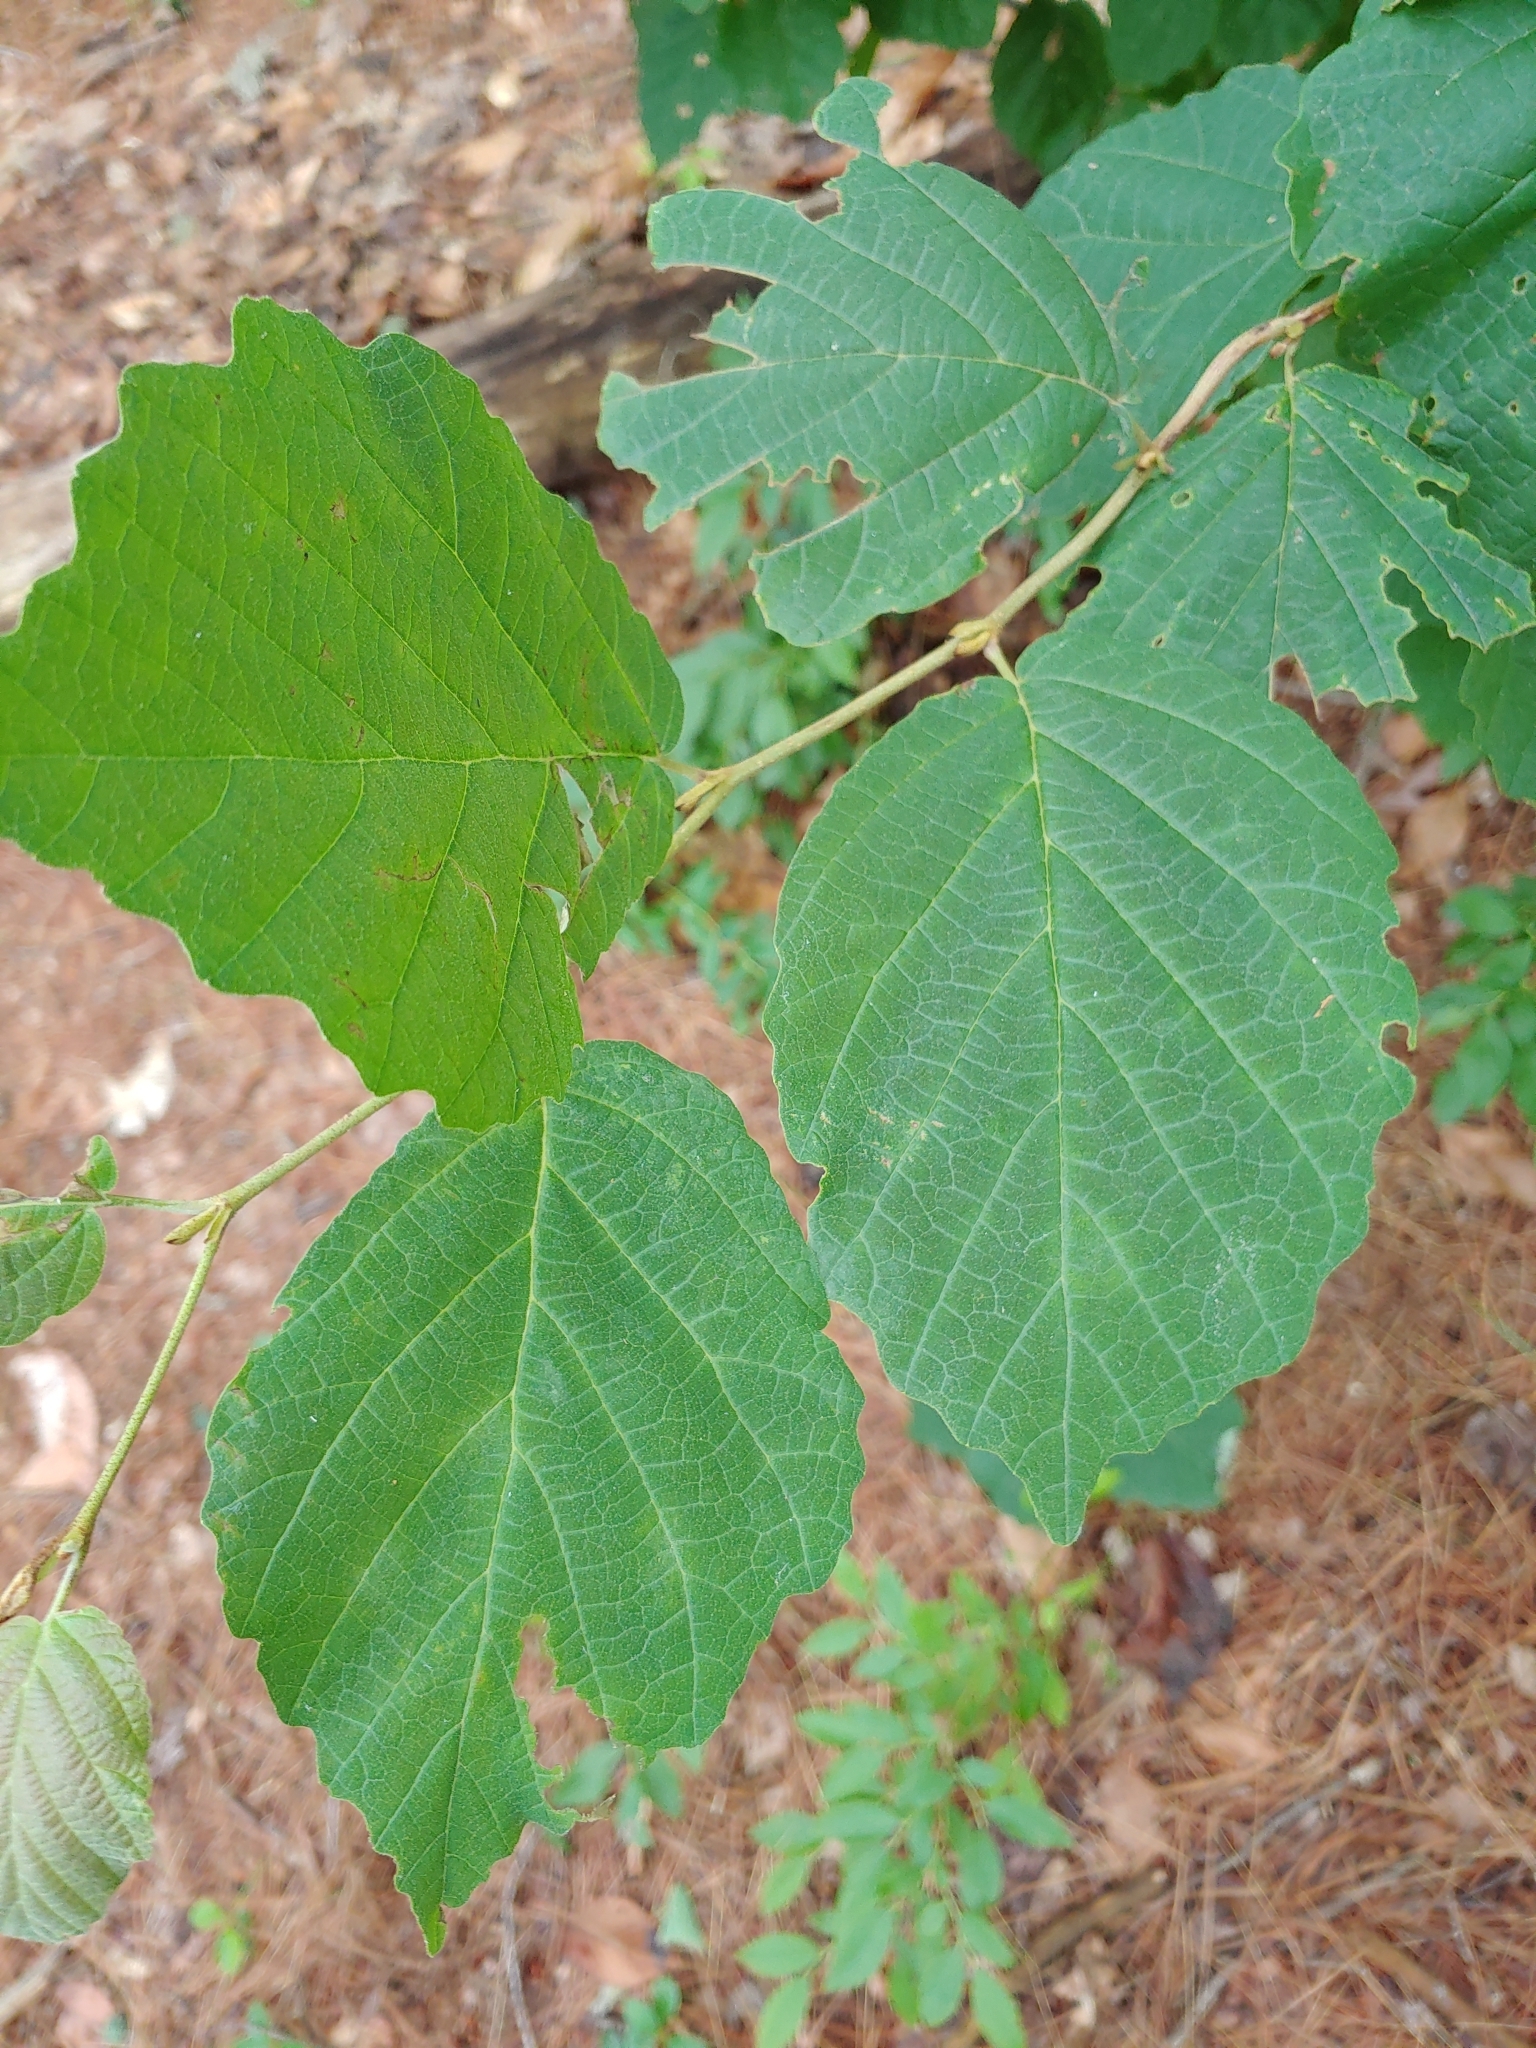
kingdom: Plantae
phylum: Tracheophyta
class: Magnoliopsida
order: Saxifragales
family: Hamamelidaceae
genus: Hamamelis
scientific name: Hamamelis virginiana
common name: Witch-hazel
